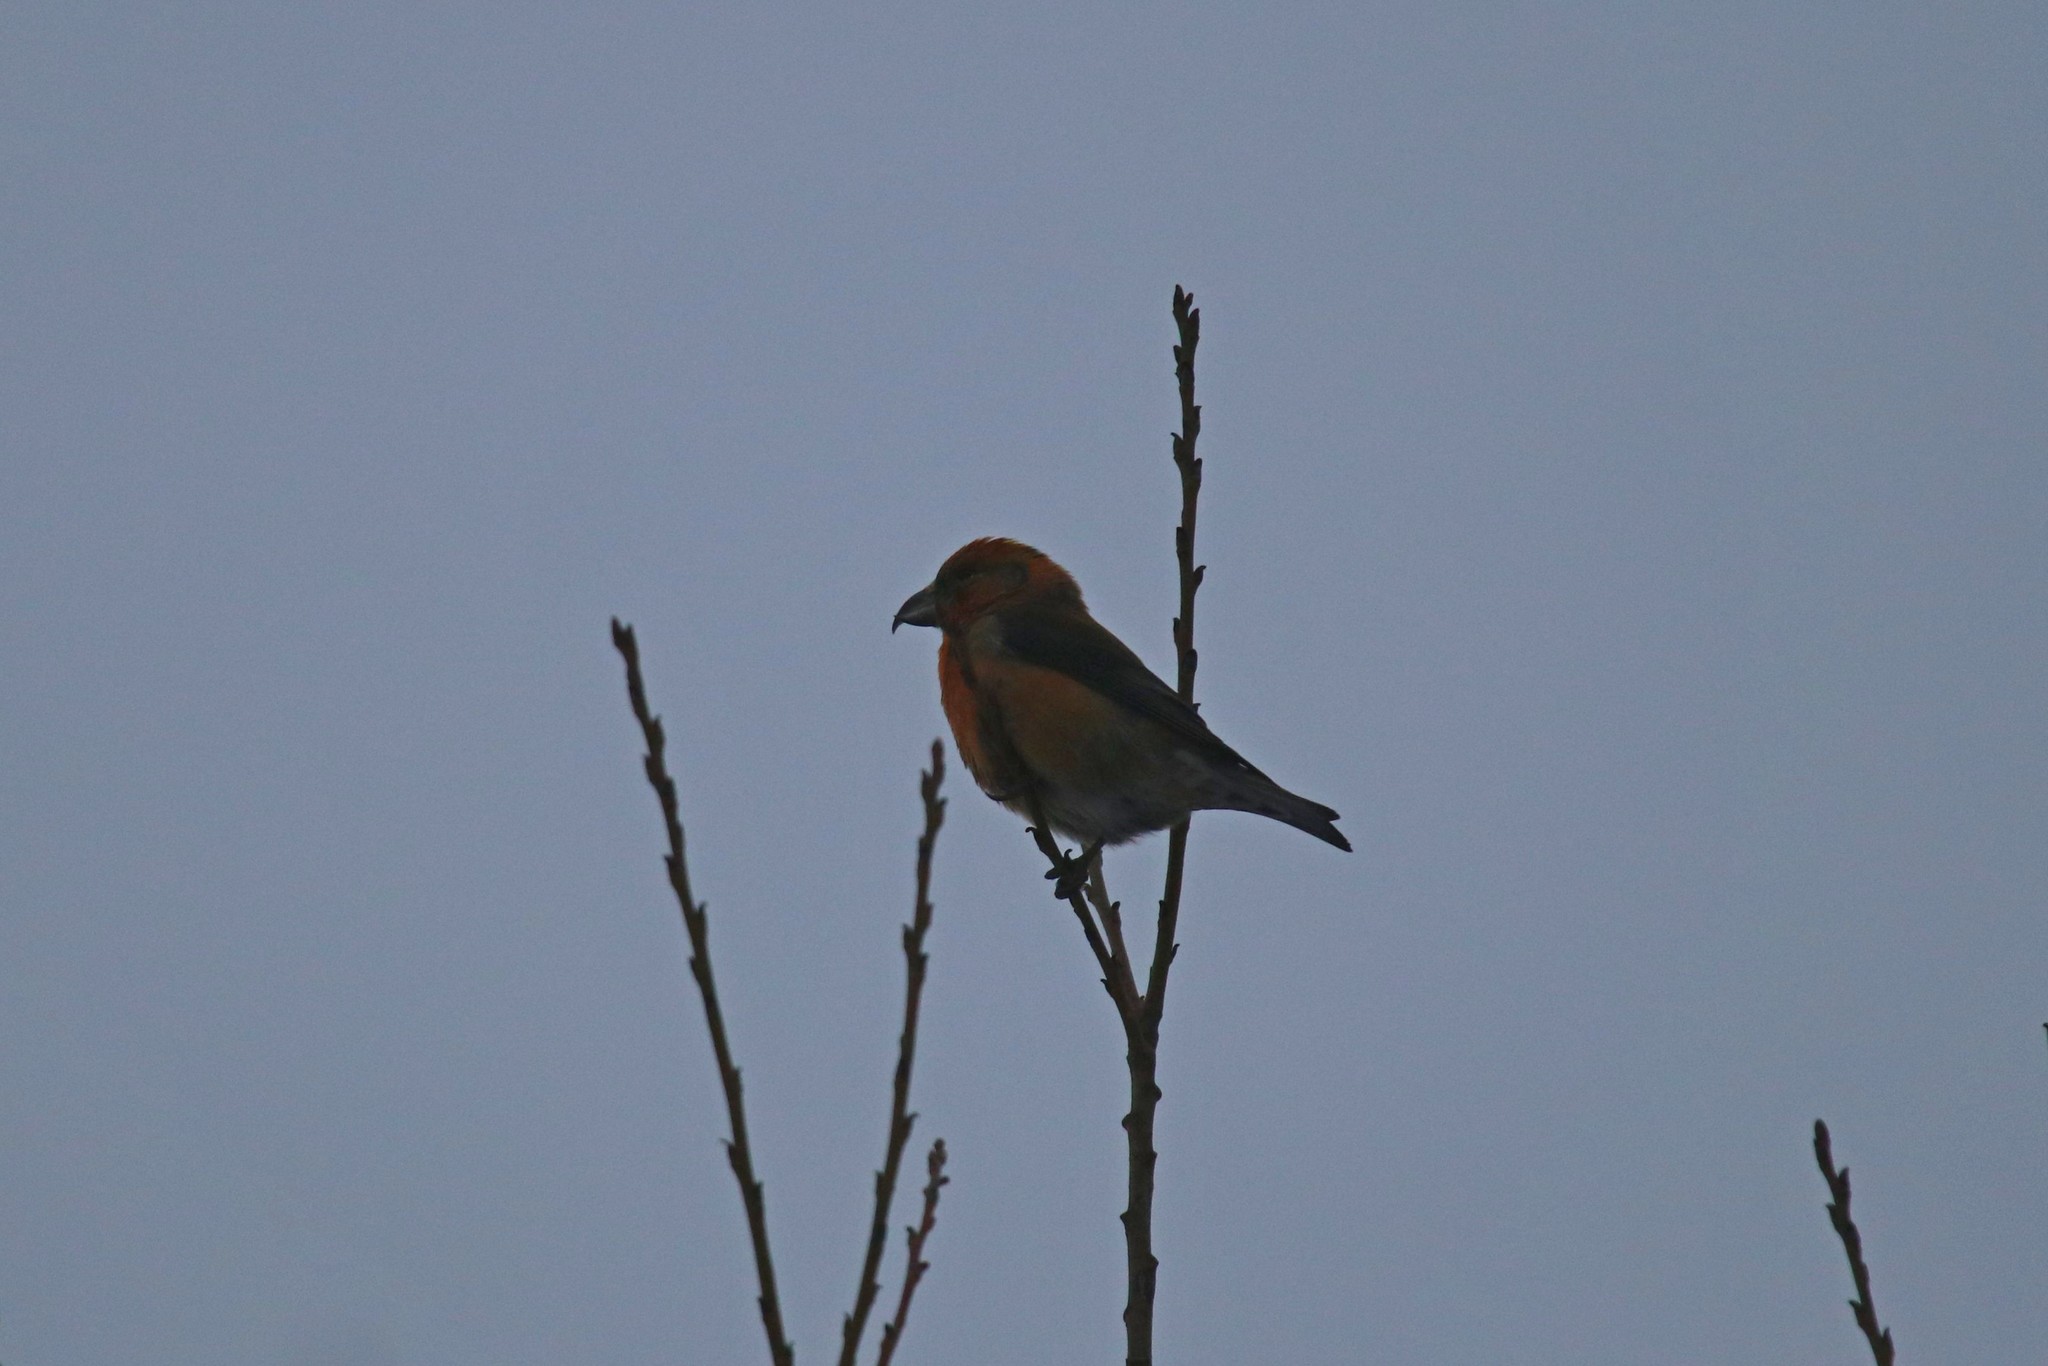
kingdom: Animalia
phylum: Chordata
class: Aves
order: Passeriformes
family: Fringillidae
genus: Loxia
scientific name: Loxia curvirostra
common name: Red crossbill
